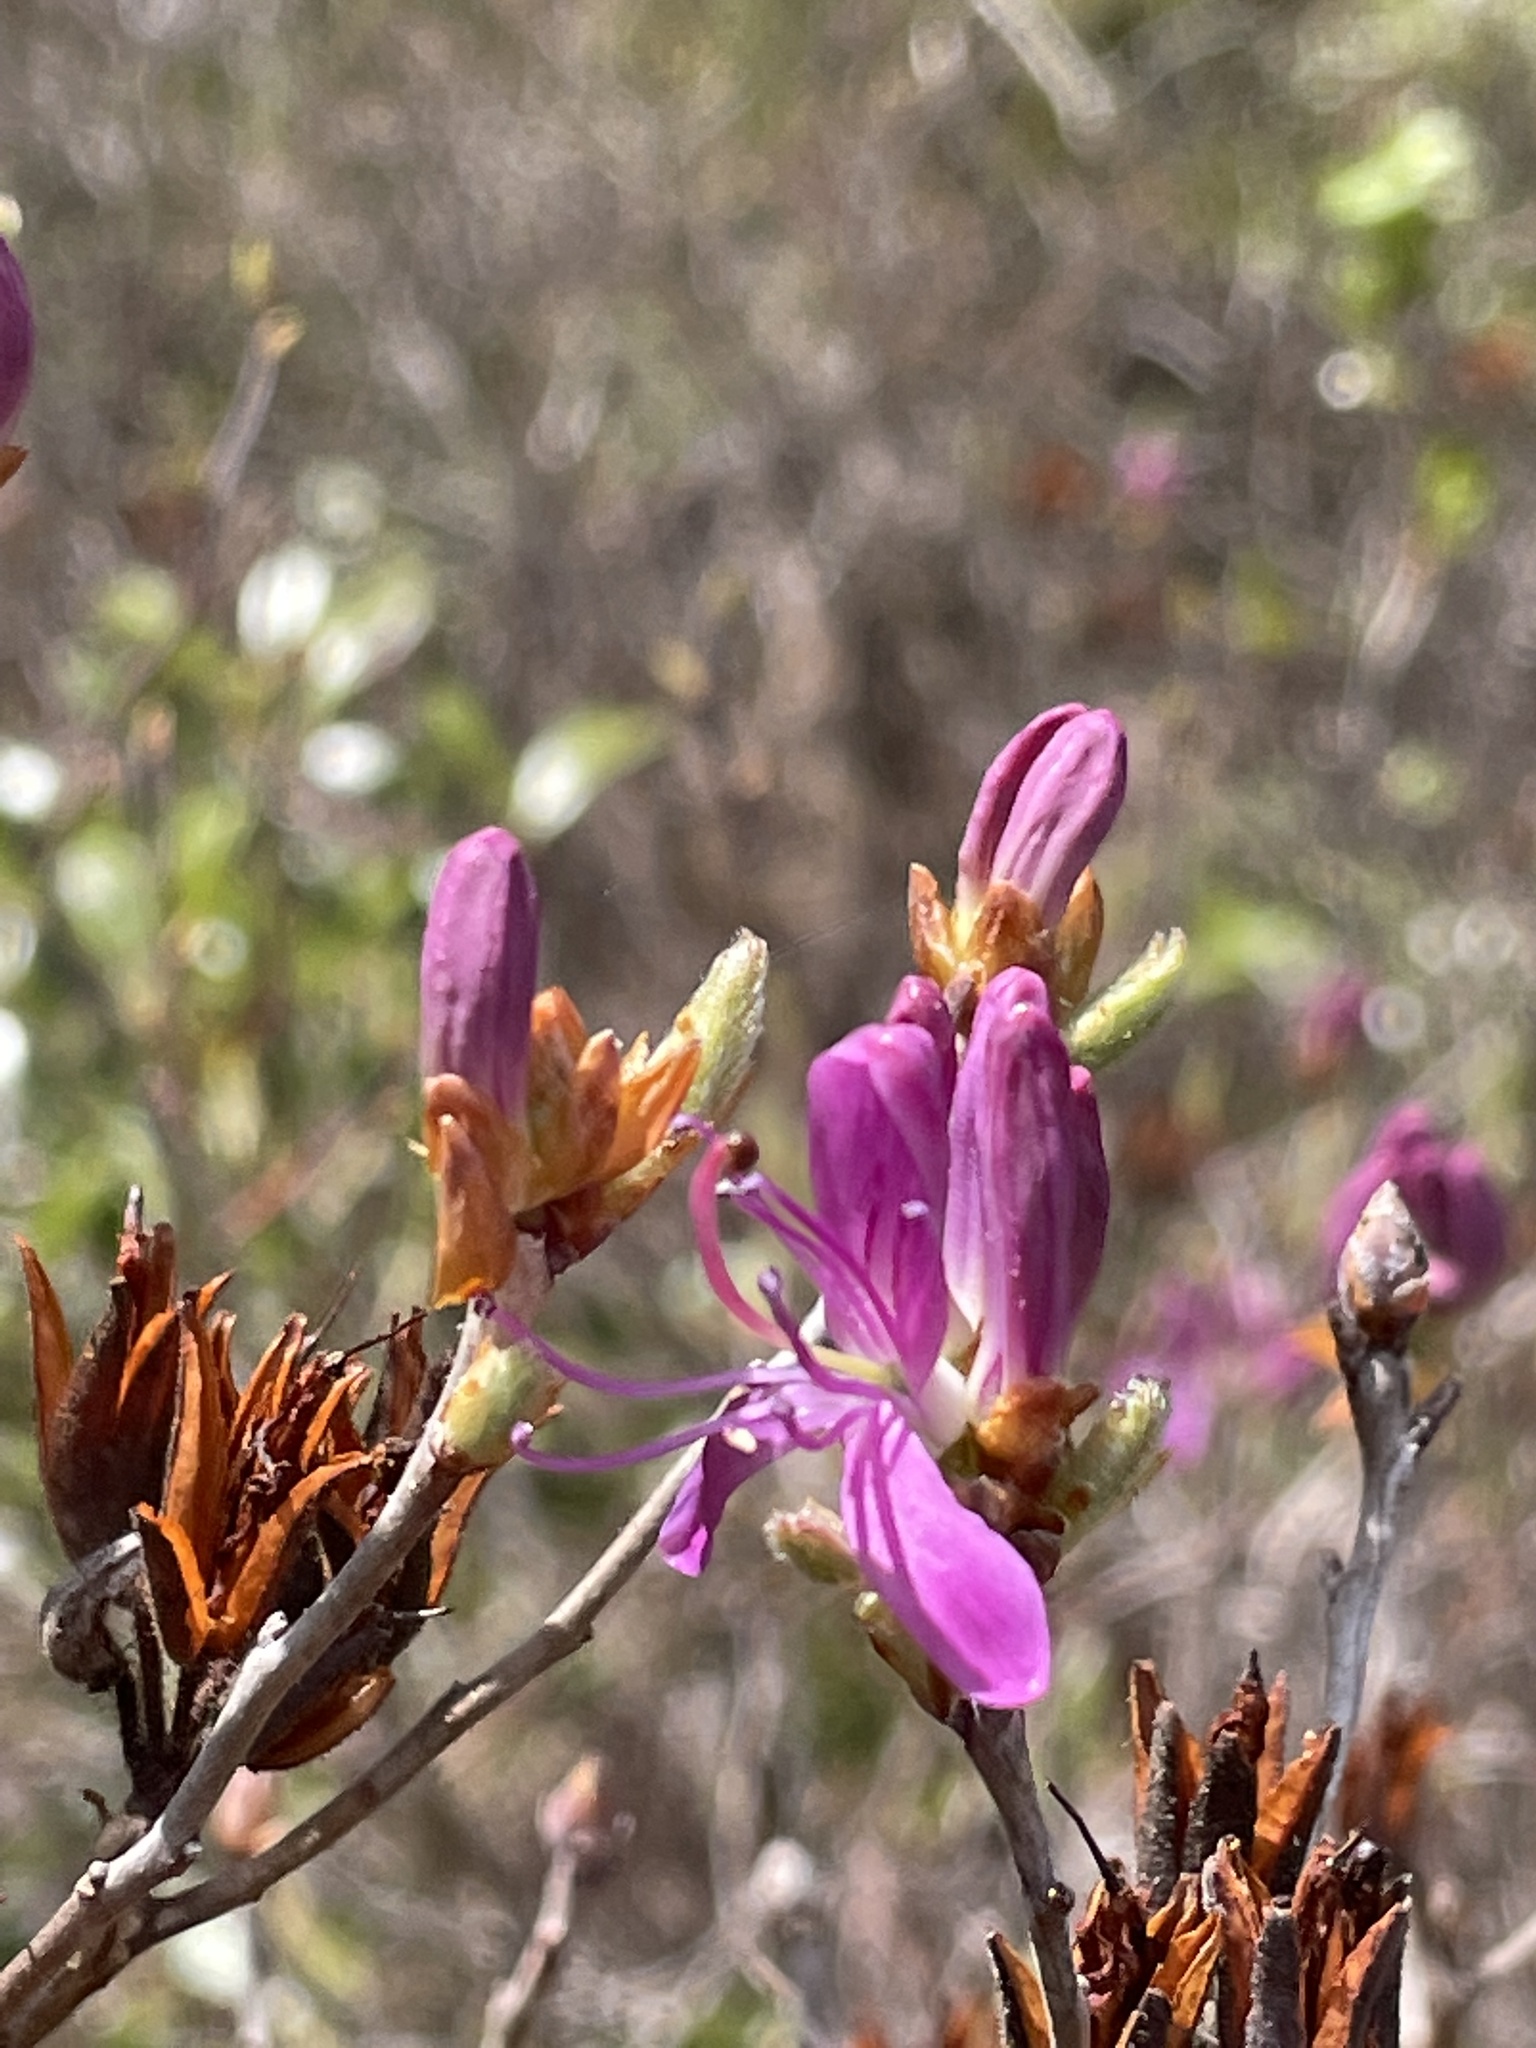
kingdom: Plantae
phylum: Tracheophyta
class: Magnoliopsida
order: Ericales
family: Ericaceae
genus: Rhododendron
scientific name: Rhododendron canadense
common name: Rhodora
